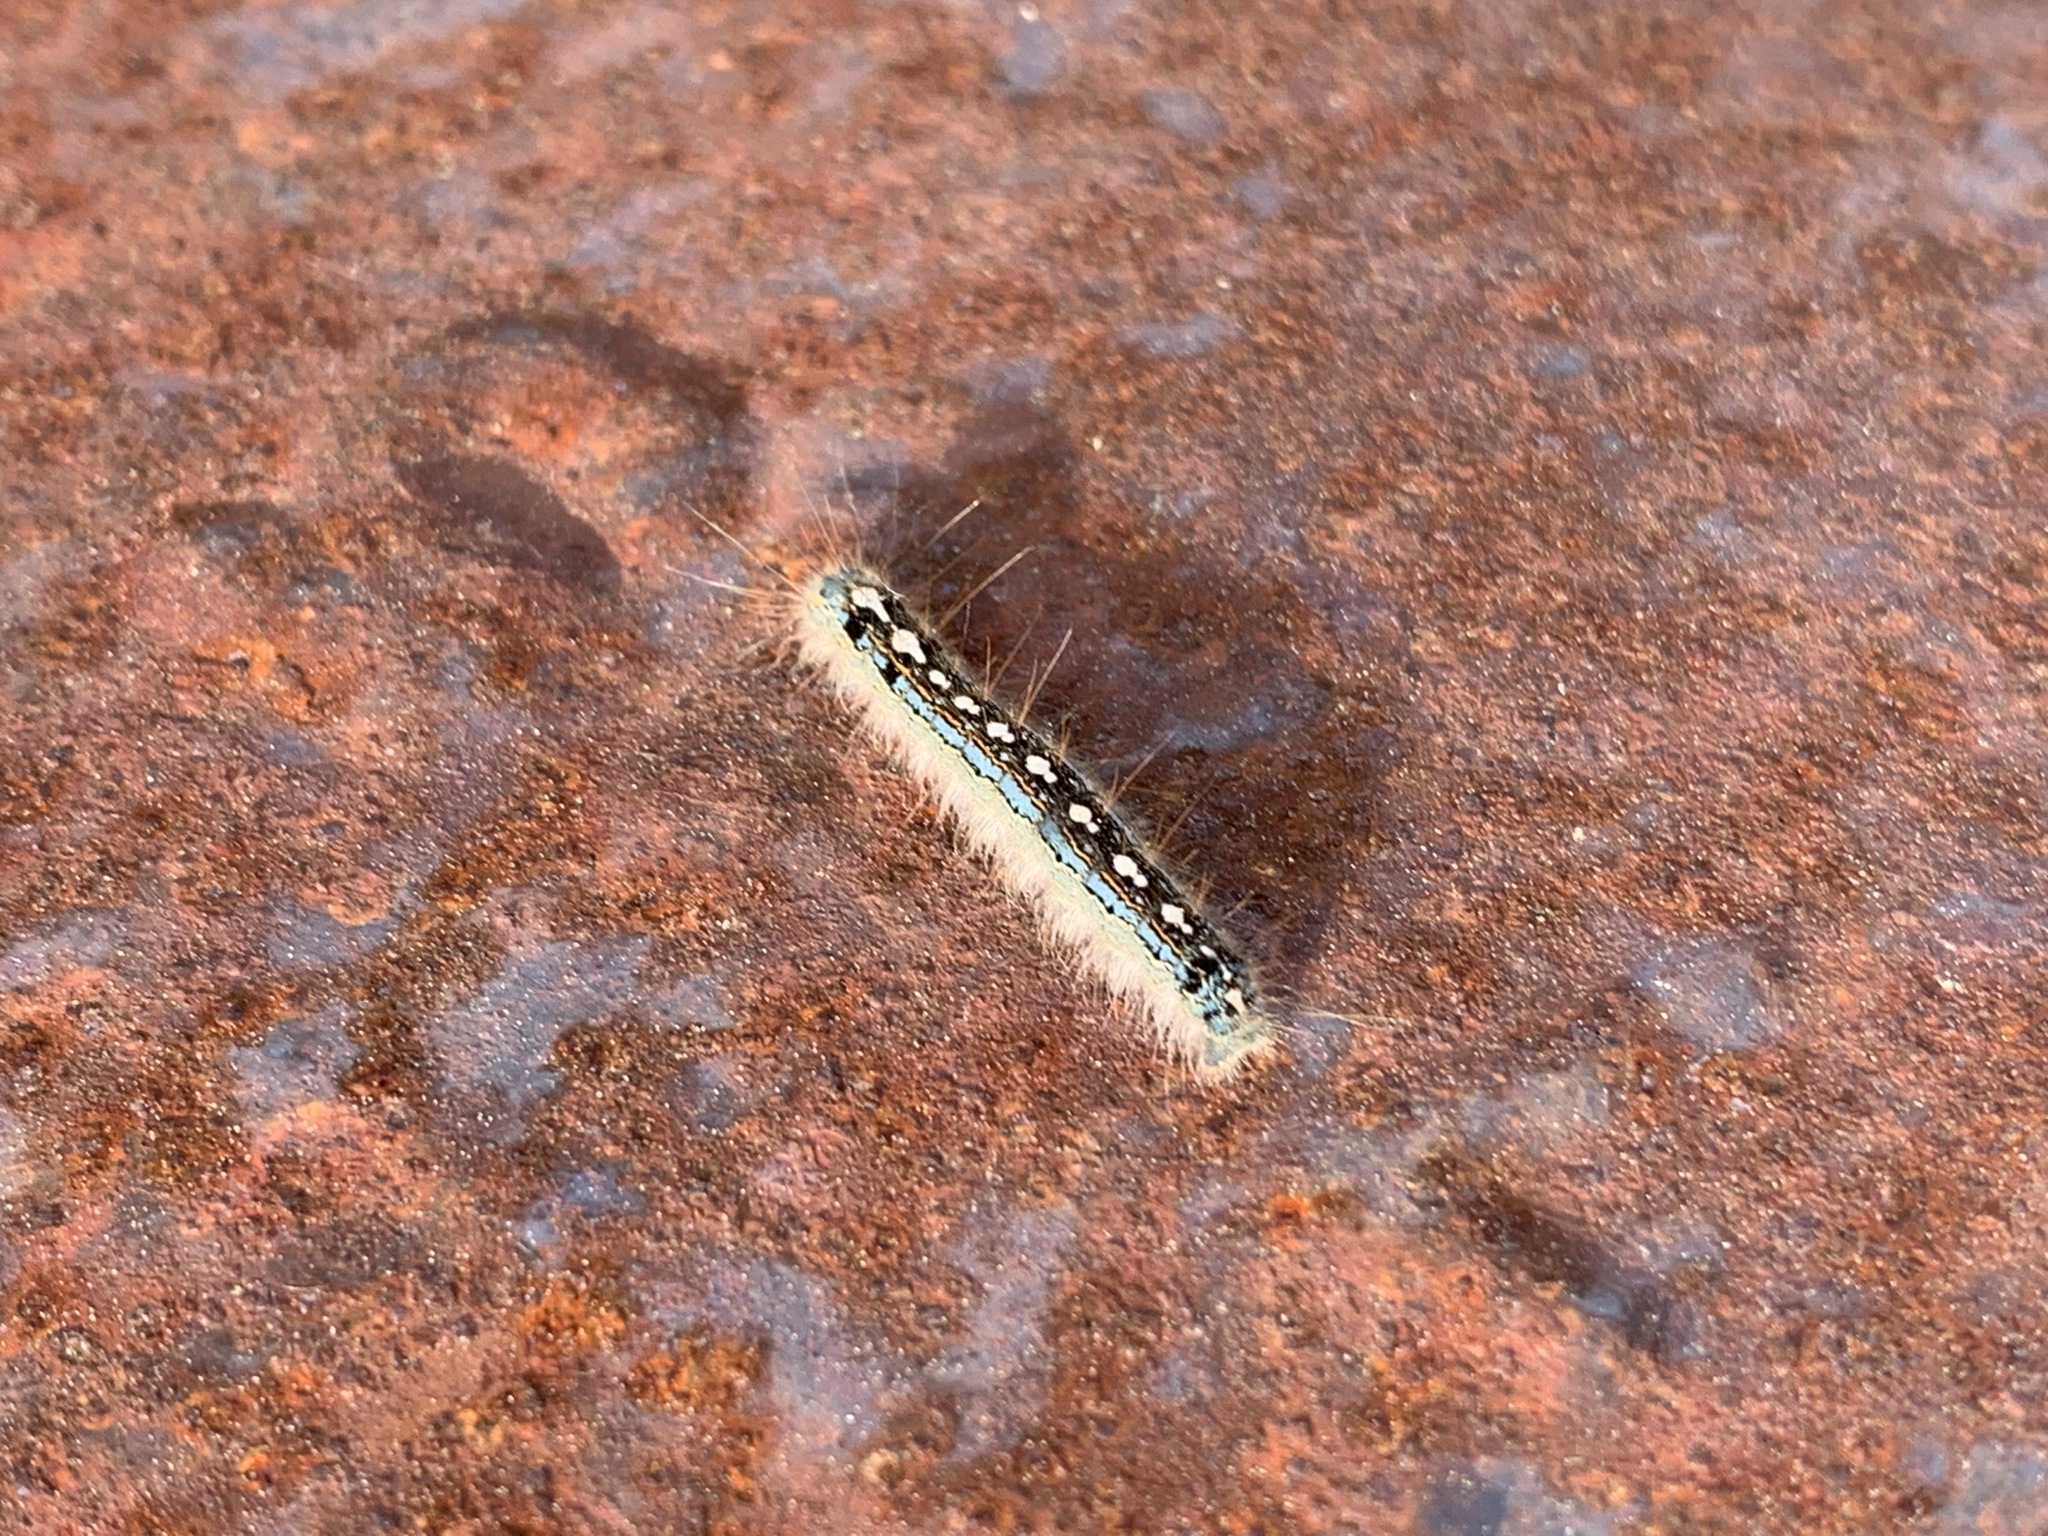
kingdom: Animalia
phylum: Arthropoda
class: Insecta
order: Lepidoptera
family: Lasiocampidae
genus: Malacosoma
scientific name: Malacosoma disstria
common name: Forest tent caterpillar
